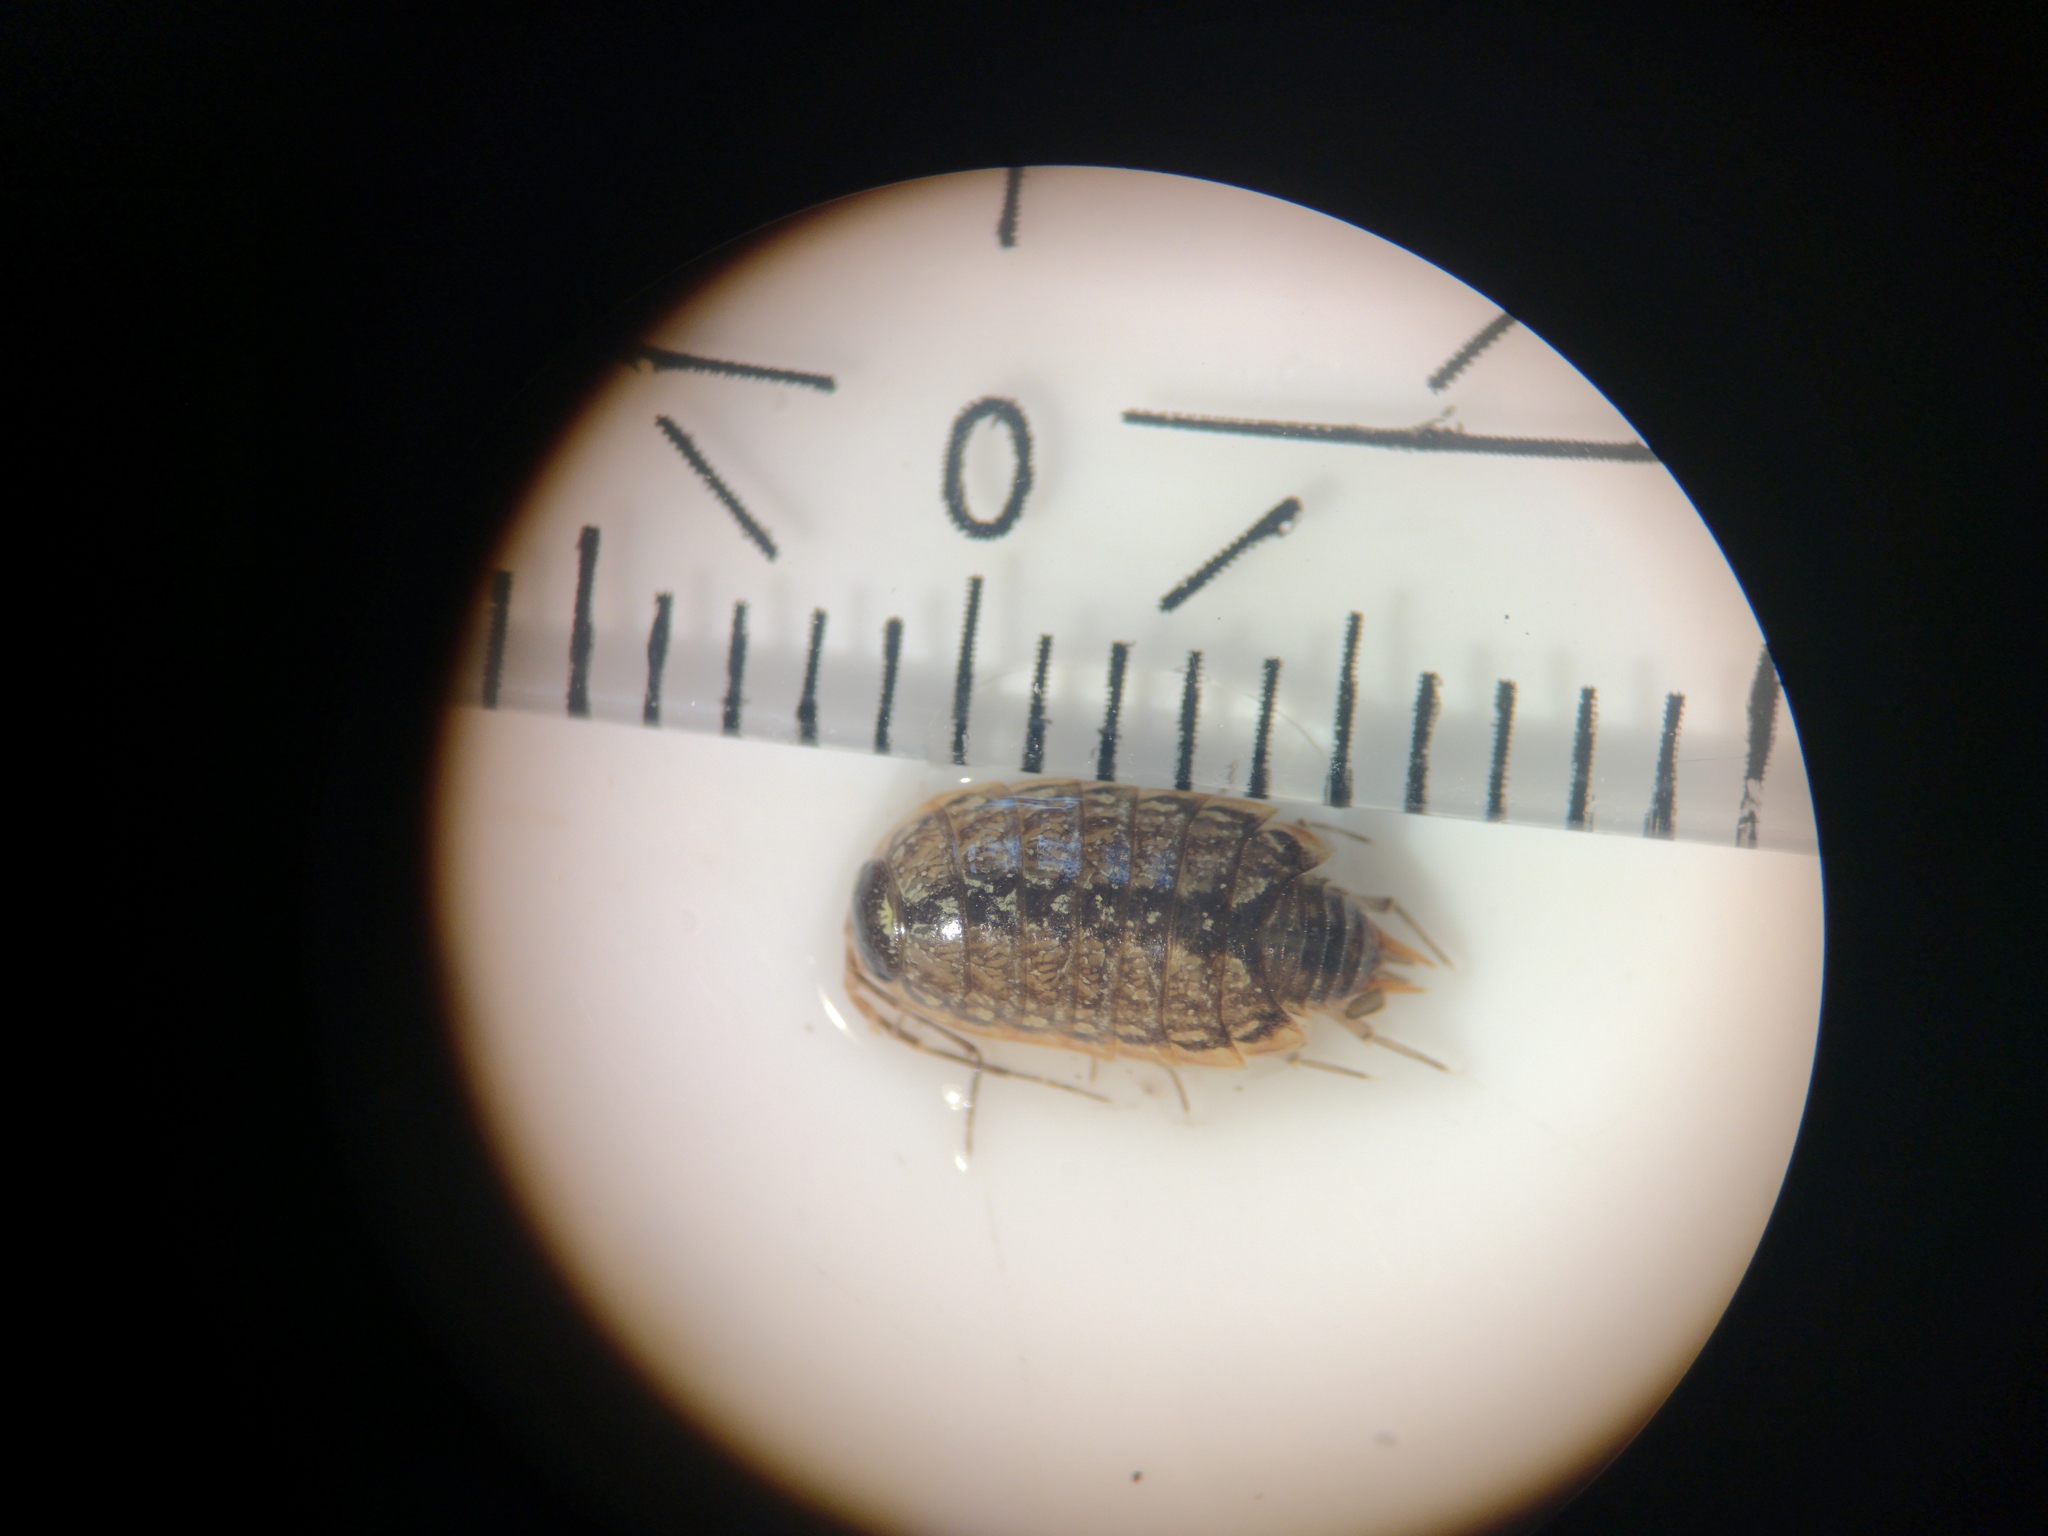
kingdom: Animalia
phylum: Arthropoda
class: Malacostraca
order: Isopoda
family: Philosciidae
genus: Philoscia
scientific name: Philoscia muscorum
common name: Common striped woodlouse
